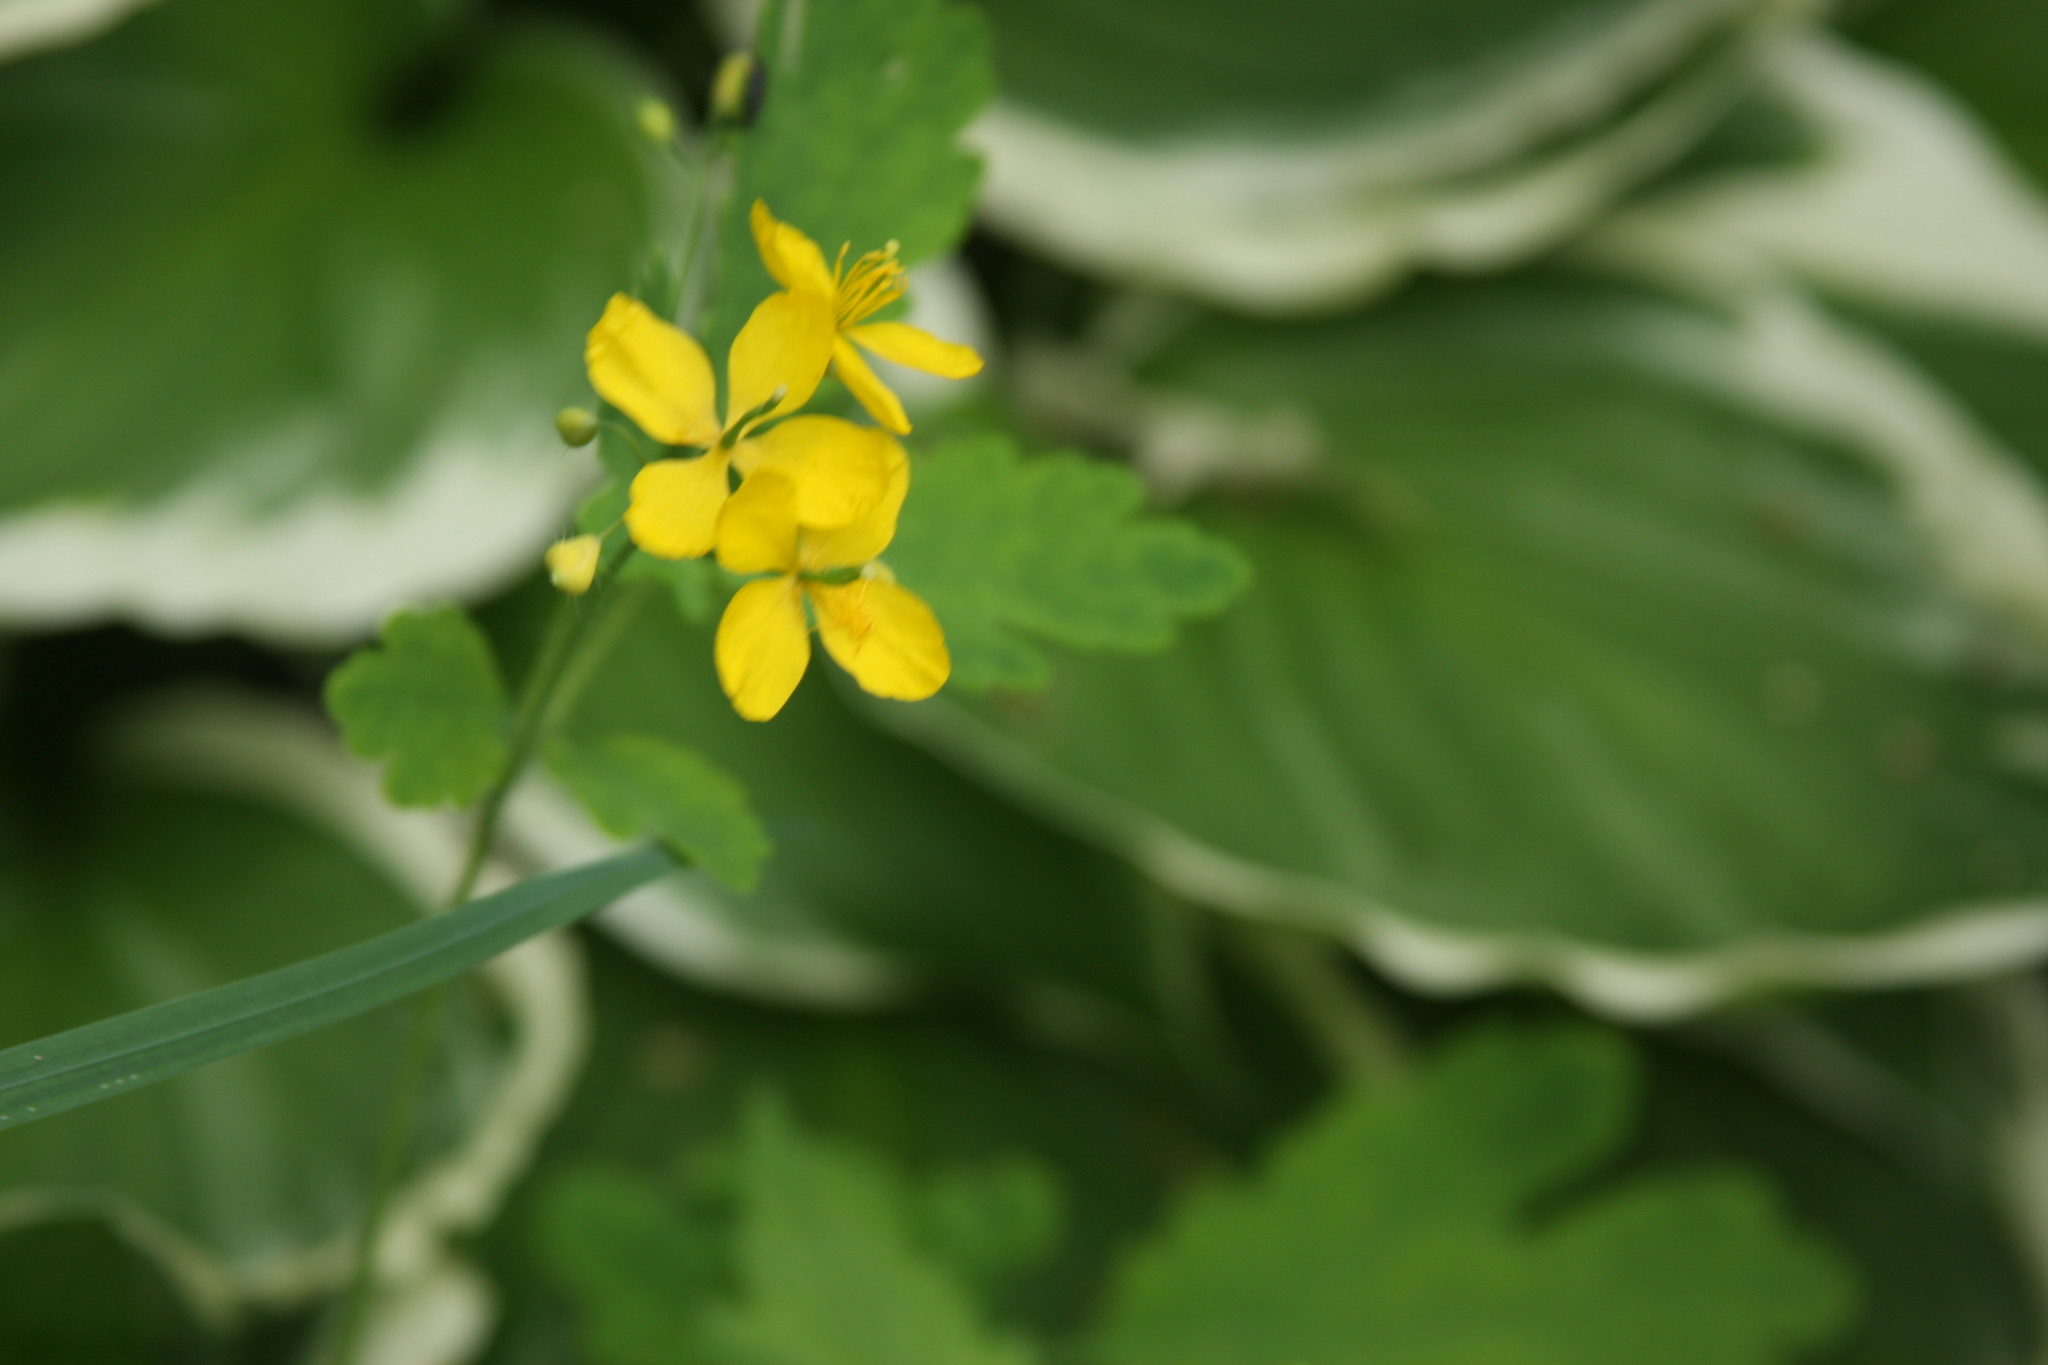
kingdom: Plantae
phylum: Tracheophyta
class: Magnoliopsida
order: Ranunculales
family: Papaveraceae
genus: Chelidonium
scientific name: Chelidonium majus
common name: Greater celandine
